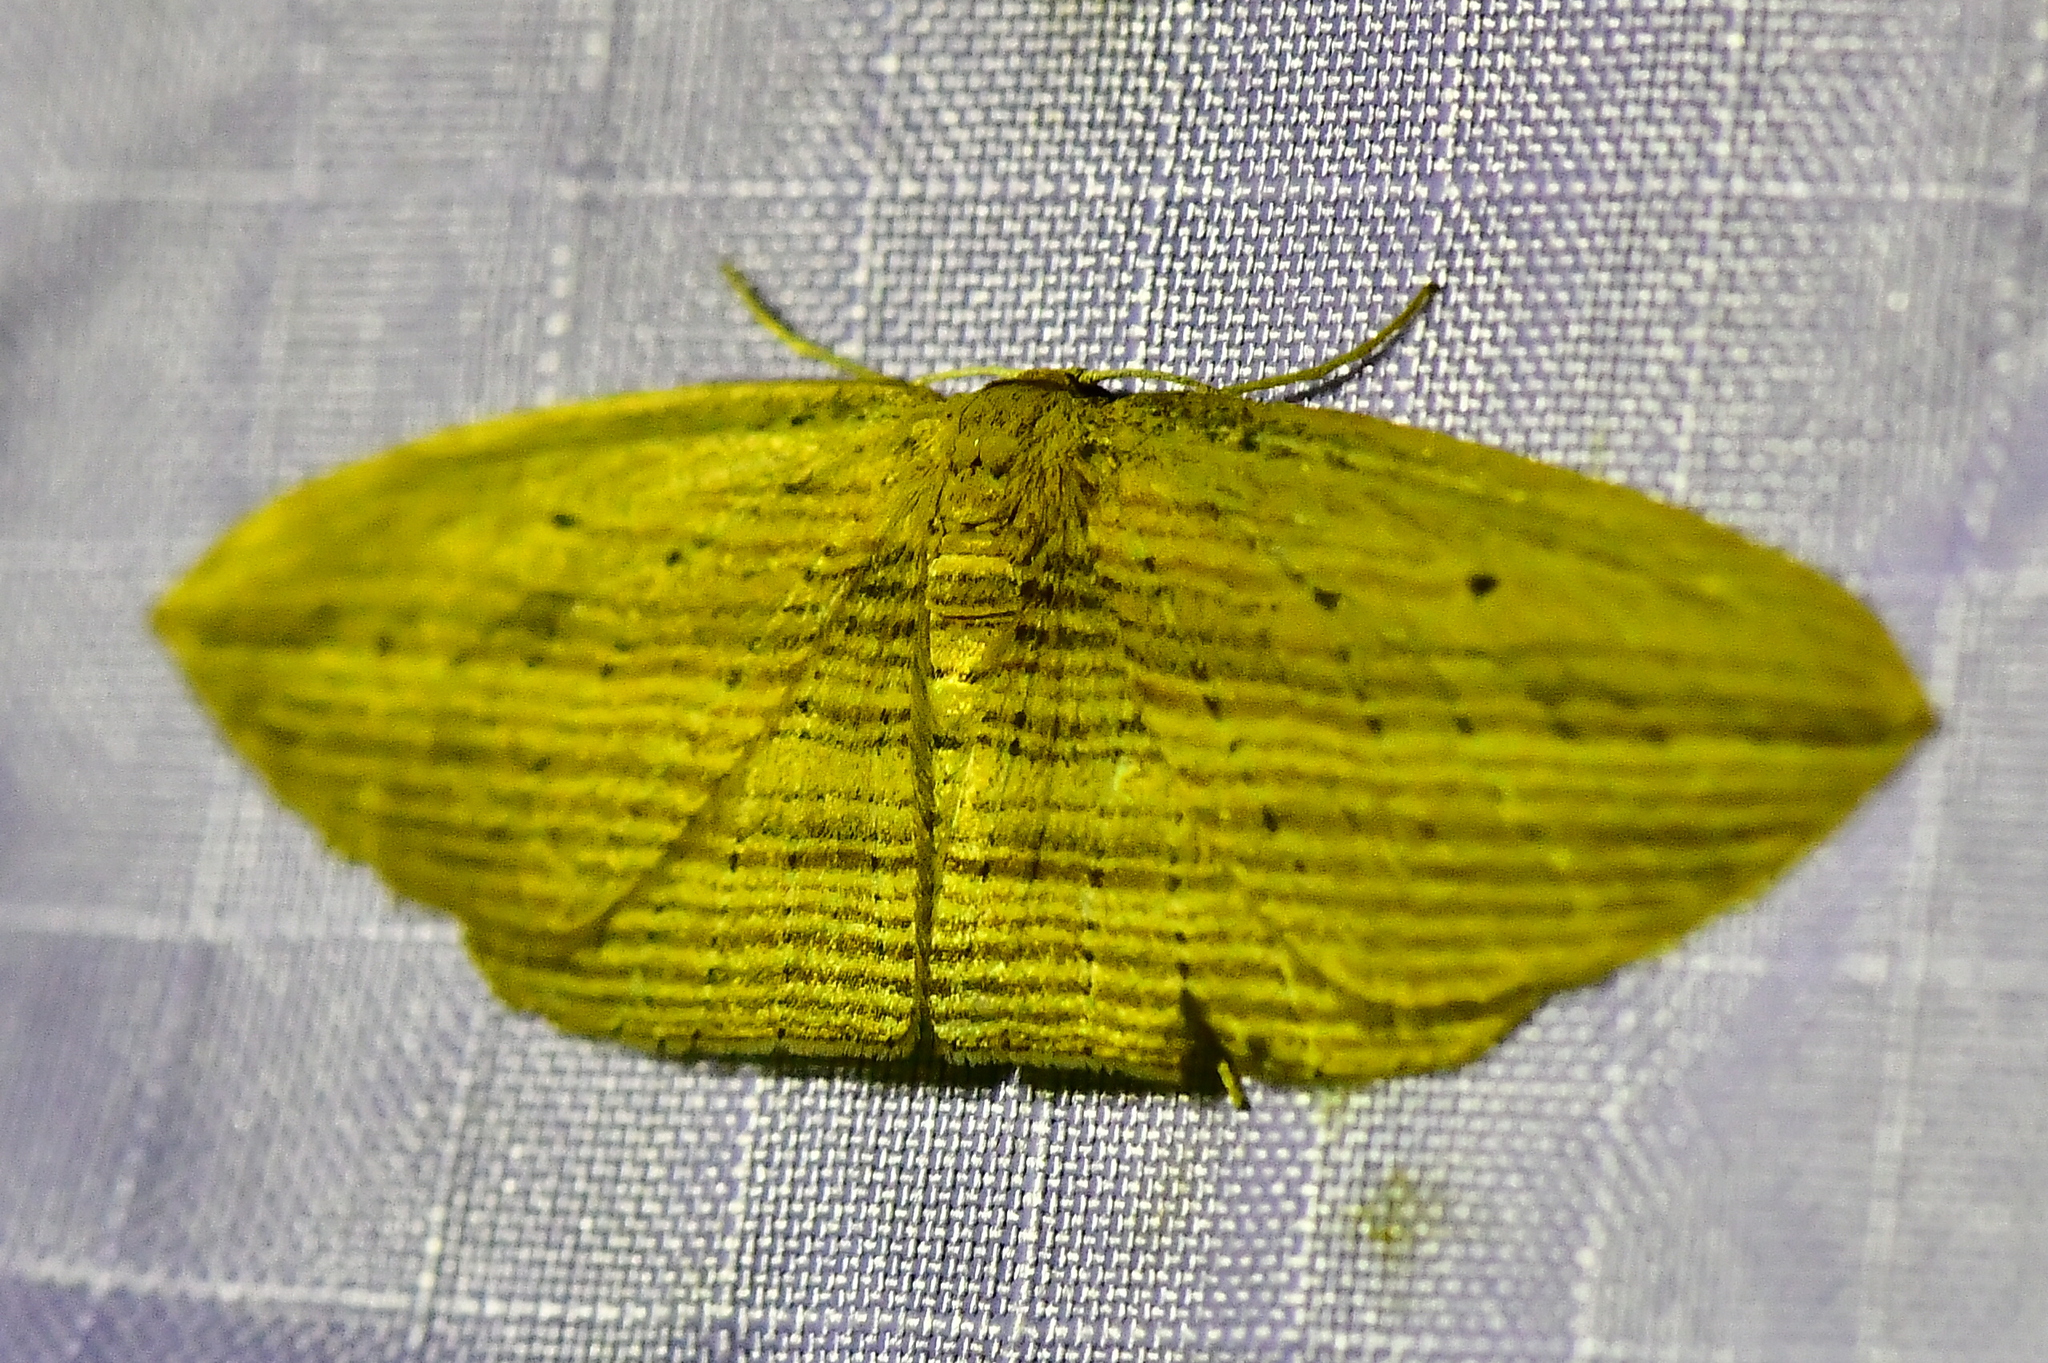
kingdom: Animalia
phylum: Arthropoda
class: Insecta
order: Lepidoptera
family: Geometridae
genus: Epiphryne
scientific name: Epiphryne verriculata
